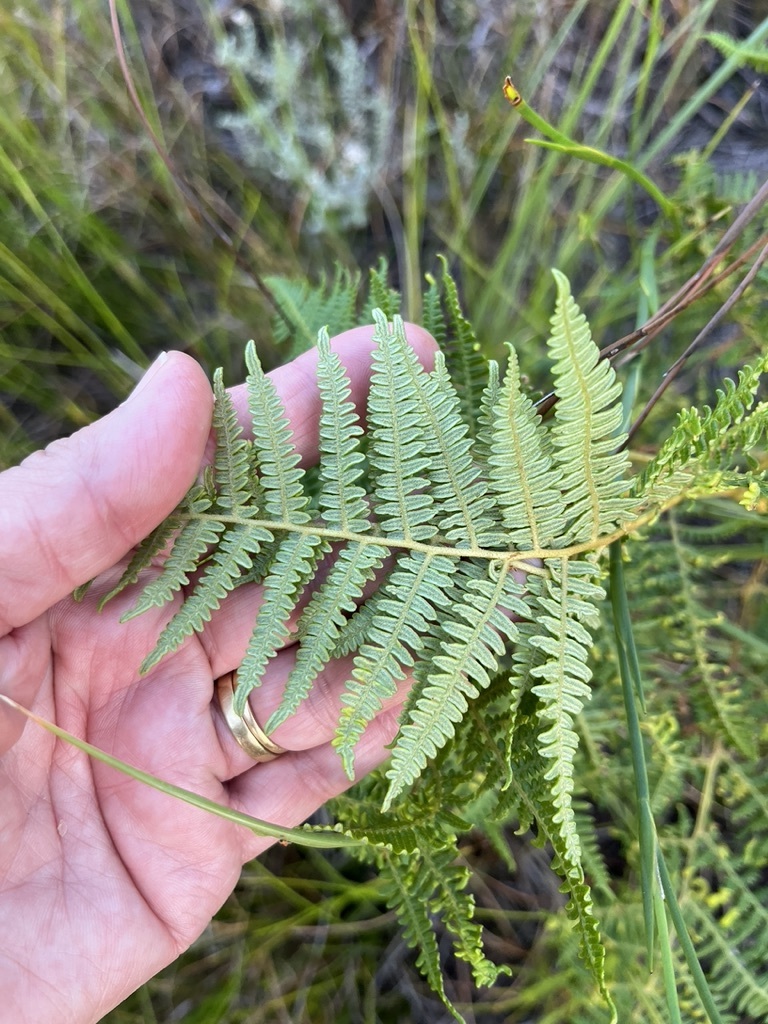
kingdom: Plantae
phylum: Tracheophyta
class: Polypodiopsida
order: Polypodiales
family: Dennstaedtiaceae
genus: Pteridium
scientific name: Pteridium aquilinum
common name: Bracken
